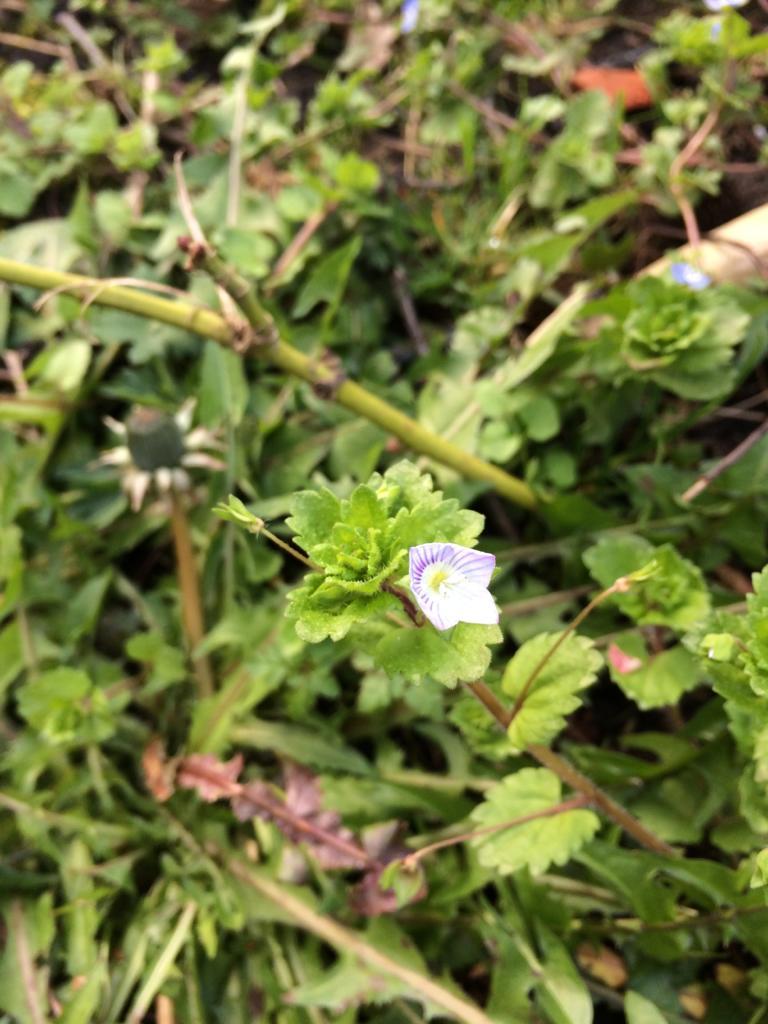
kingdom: Plantae
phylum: Tracheophyta
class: Magnoliopsida
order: Lamiales
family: Plantaginaceae
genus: Veronica
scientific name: Veronica persica
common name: Common field-speedwell
